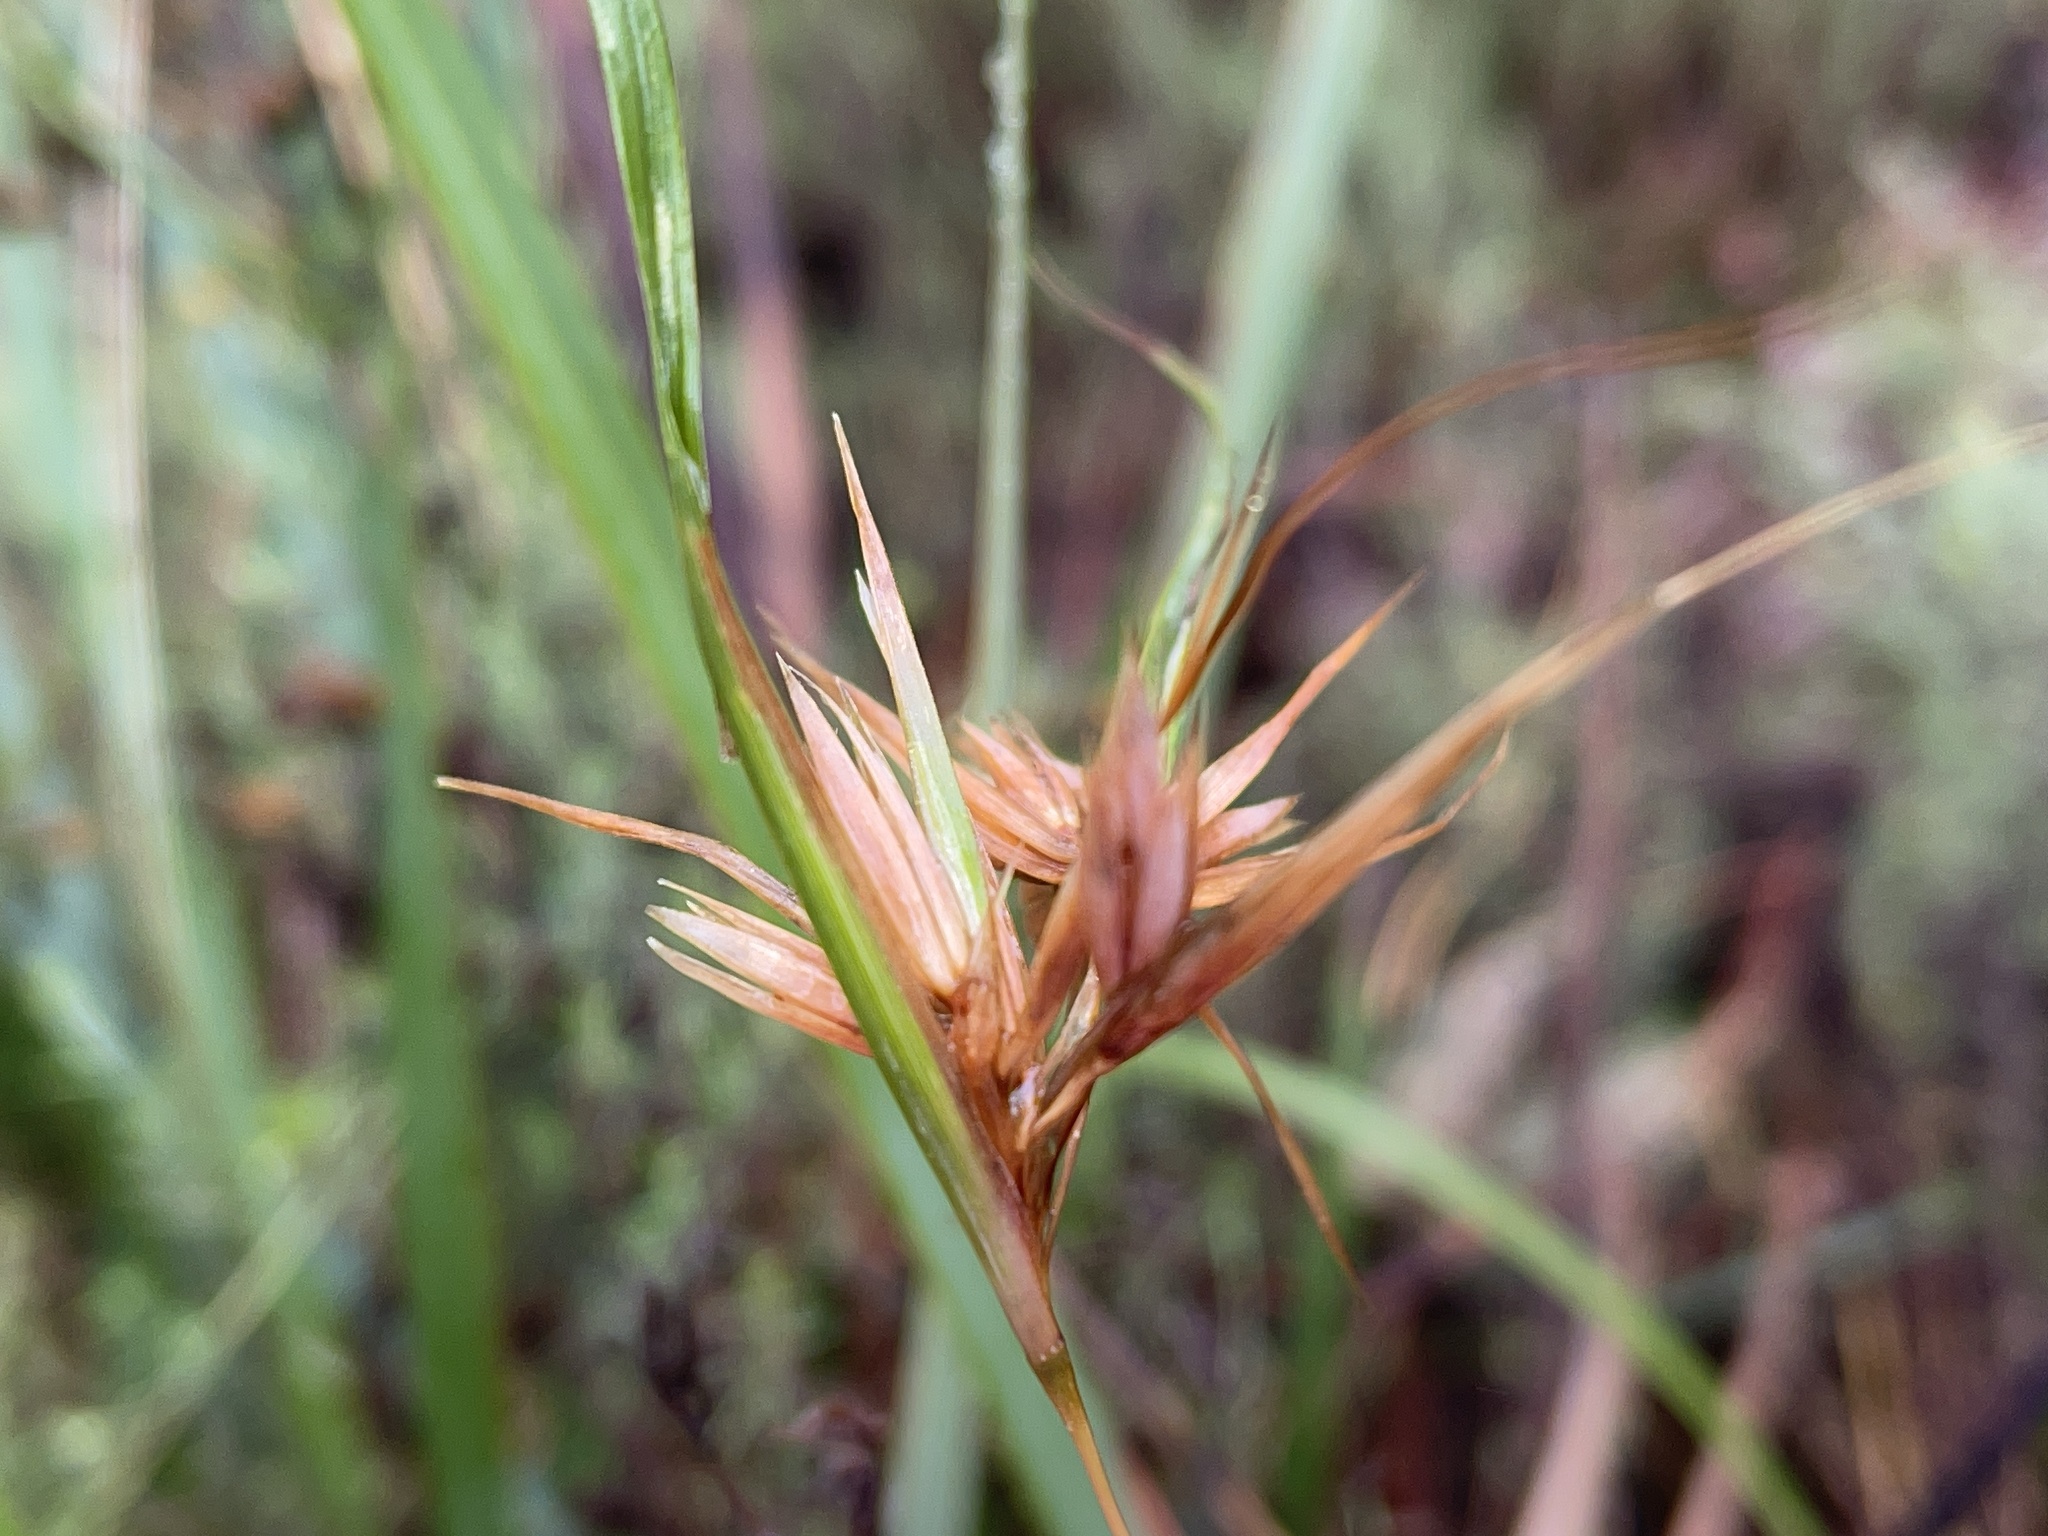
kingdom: Plantae
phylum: Tracheophyta
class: Liliopsida
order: Poales
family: Poaceae
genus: Themeda
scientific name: Themeda triandra
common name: Kangaroo grass
